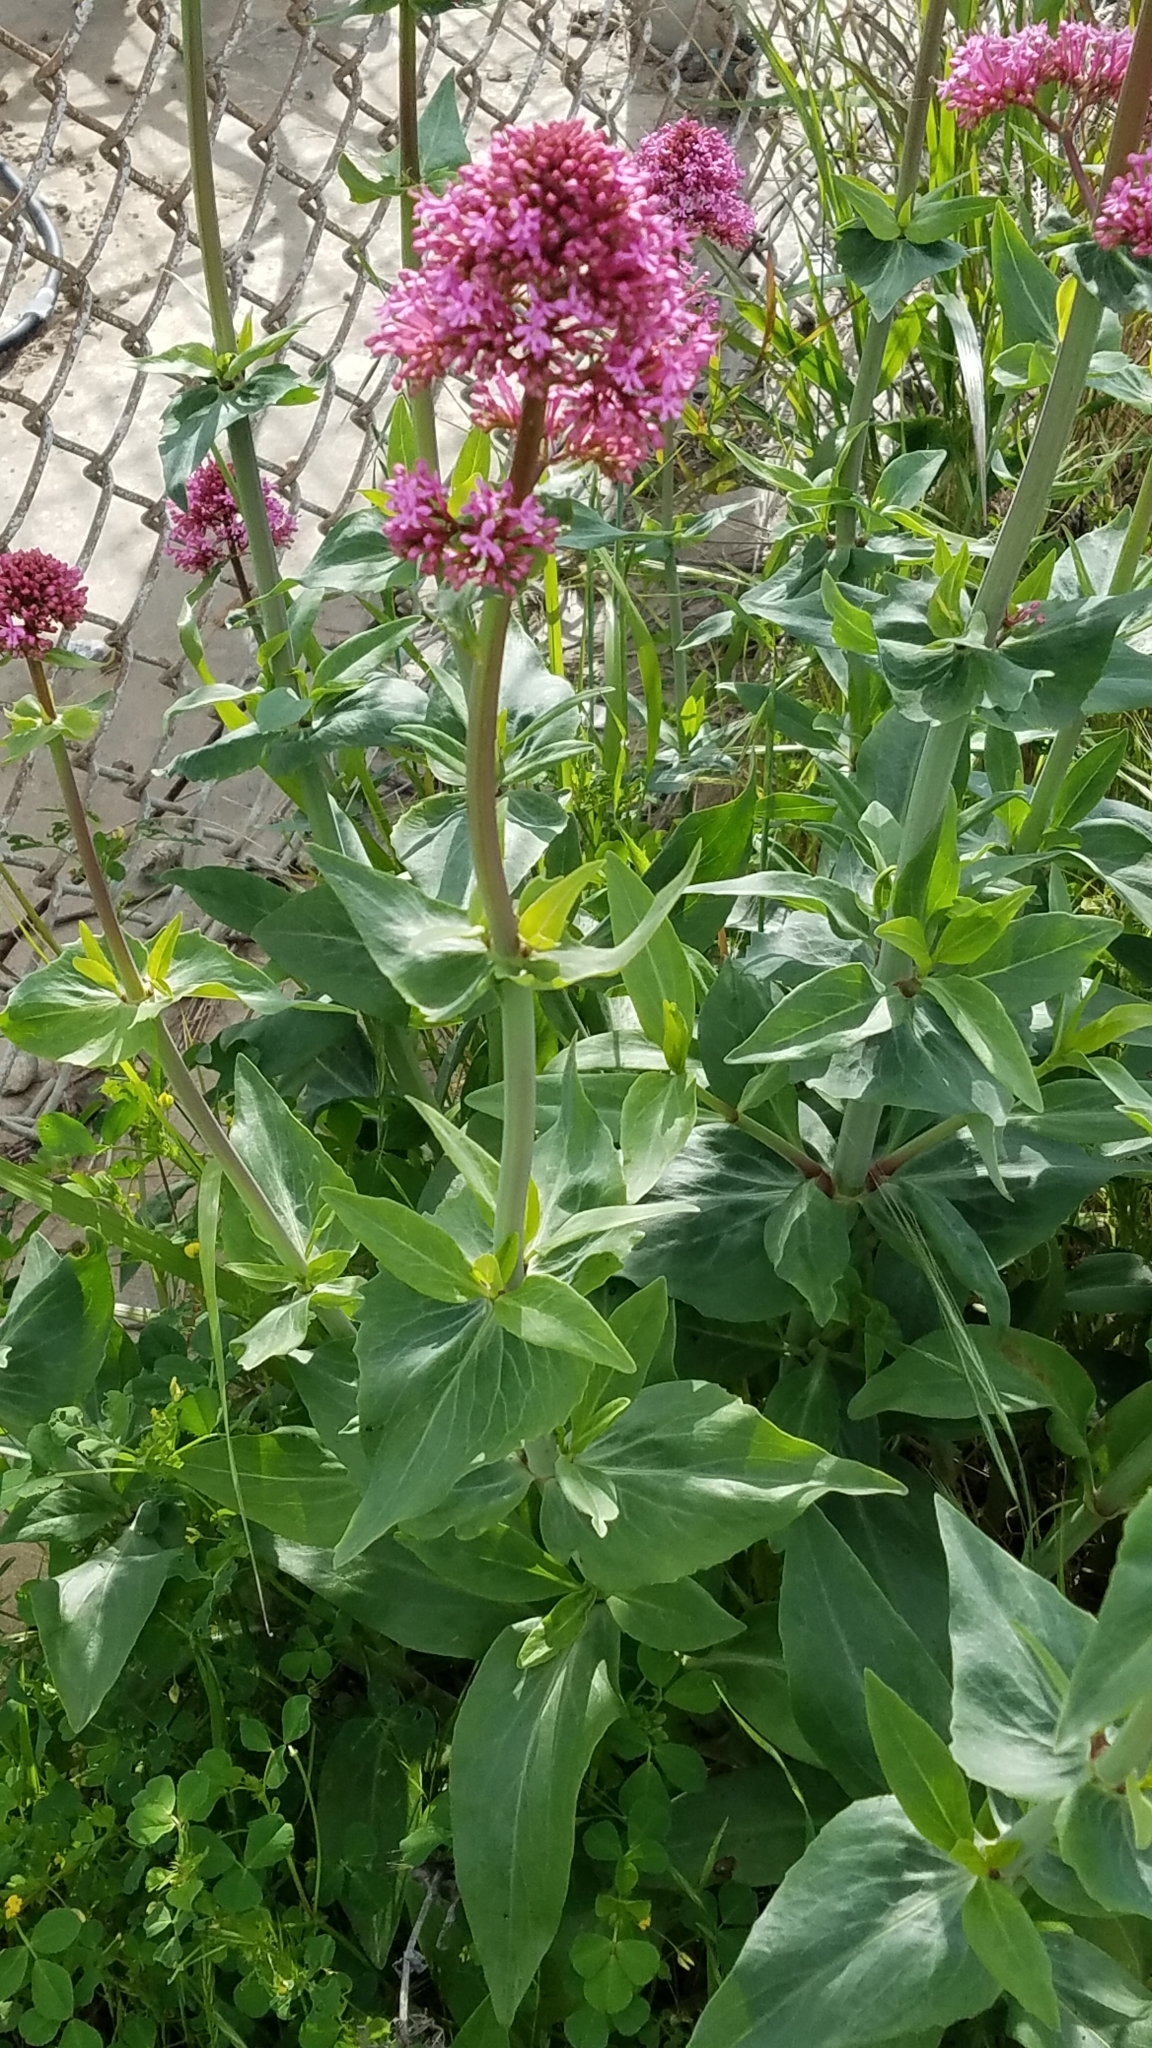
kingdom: Plantae
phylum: Tracheophyta
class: Magnoliopsida
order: Dipsacales
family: Caprifoliaceae
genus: Centranthus
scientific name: Centranthus ruber
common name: Red valerian
